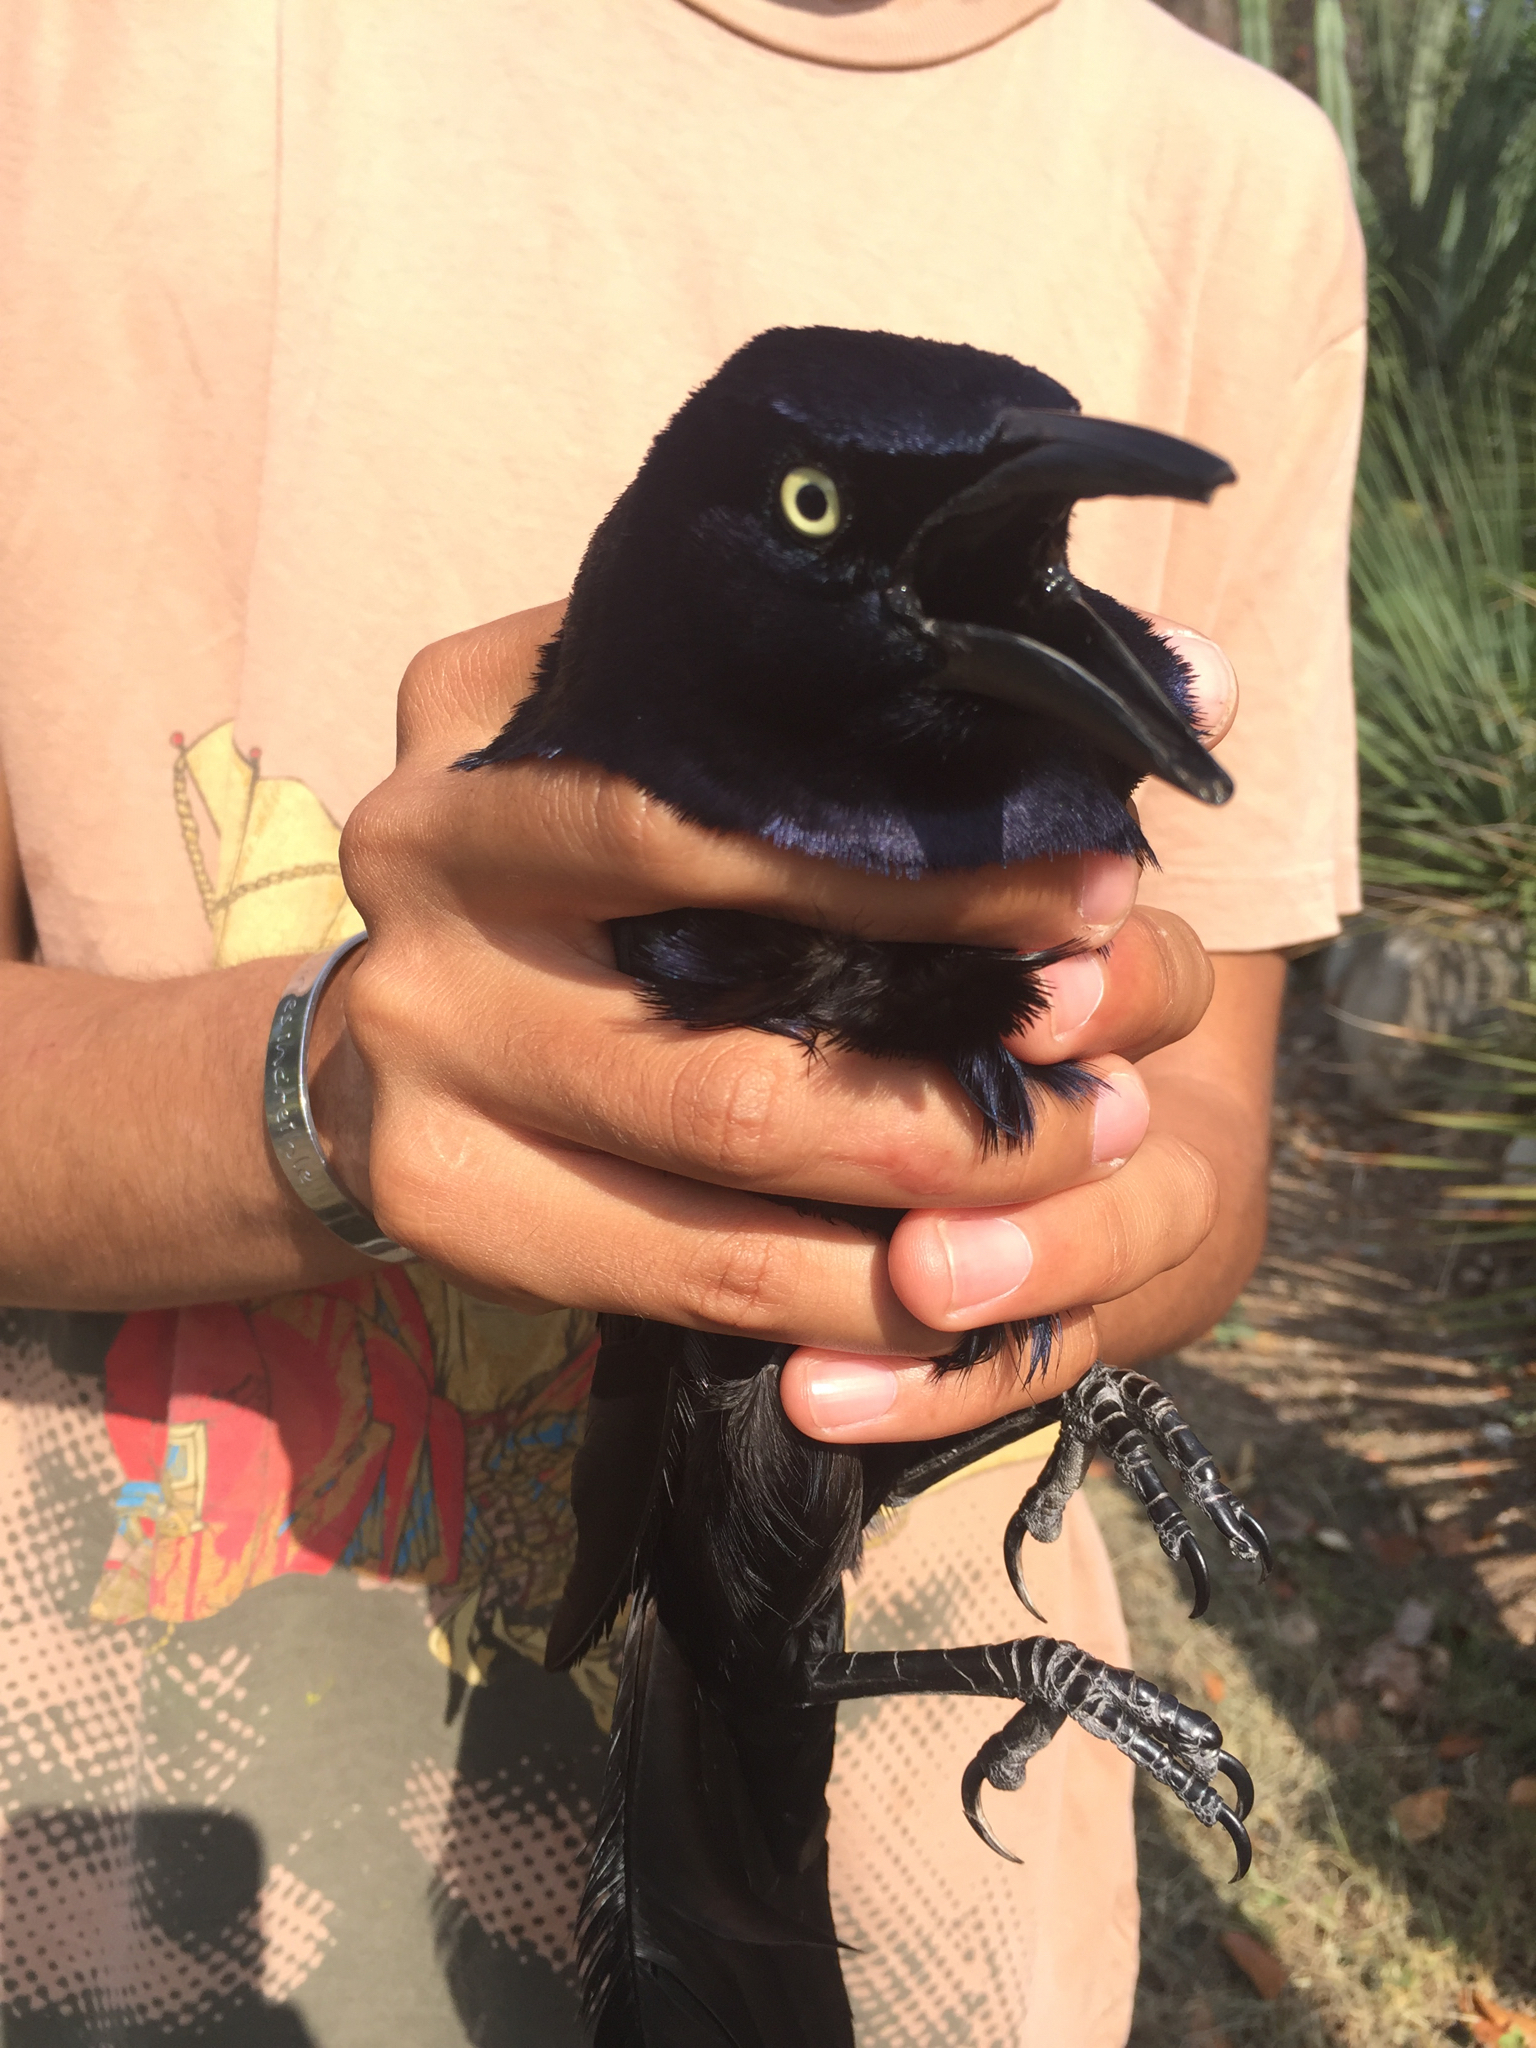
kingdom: Animalia
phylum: Chordata
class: Aves
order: Passeriformes
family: Icteridae
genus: Quiscalus
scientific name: Quiscalus mexicanus
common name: Great-tailed grackle
